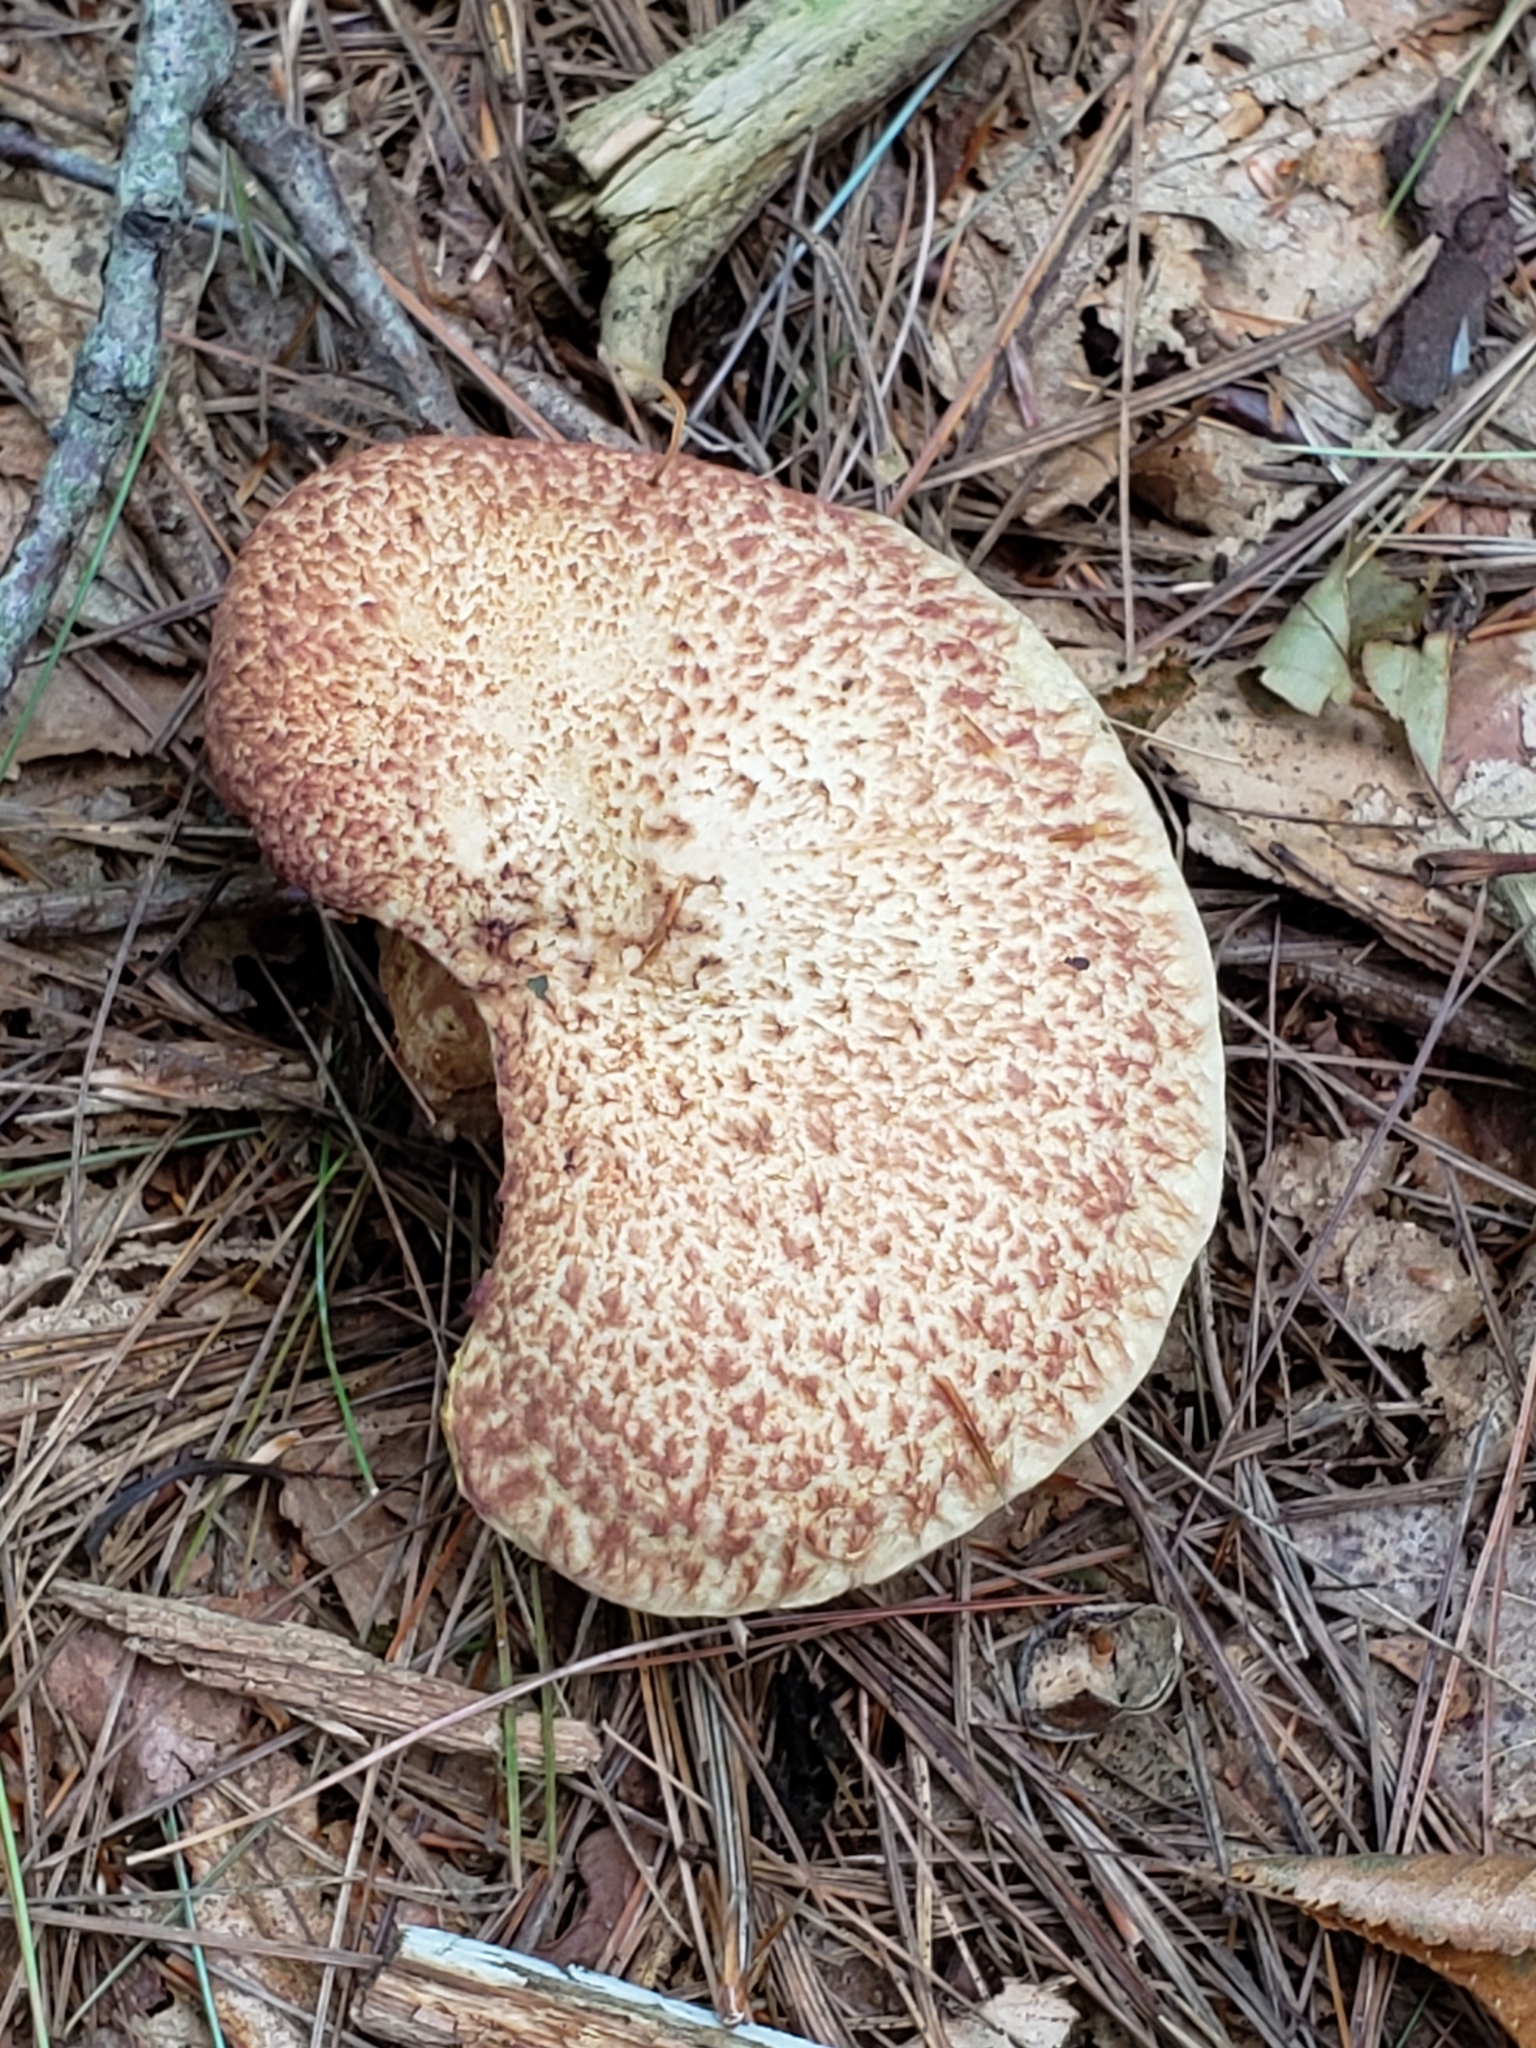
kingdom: Fungi
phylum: Basidiomycota
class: Agaricomycetes
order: Boletales
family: Suillaceae
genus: Suillus
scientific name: Suillus spraguei
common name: Painted suillus
